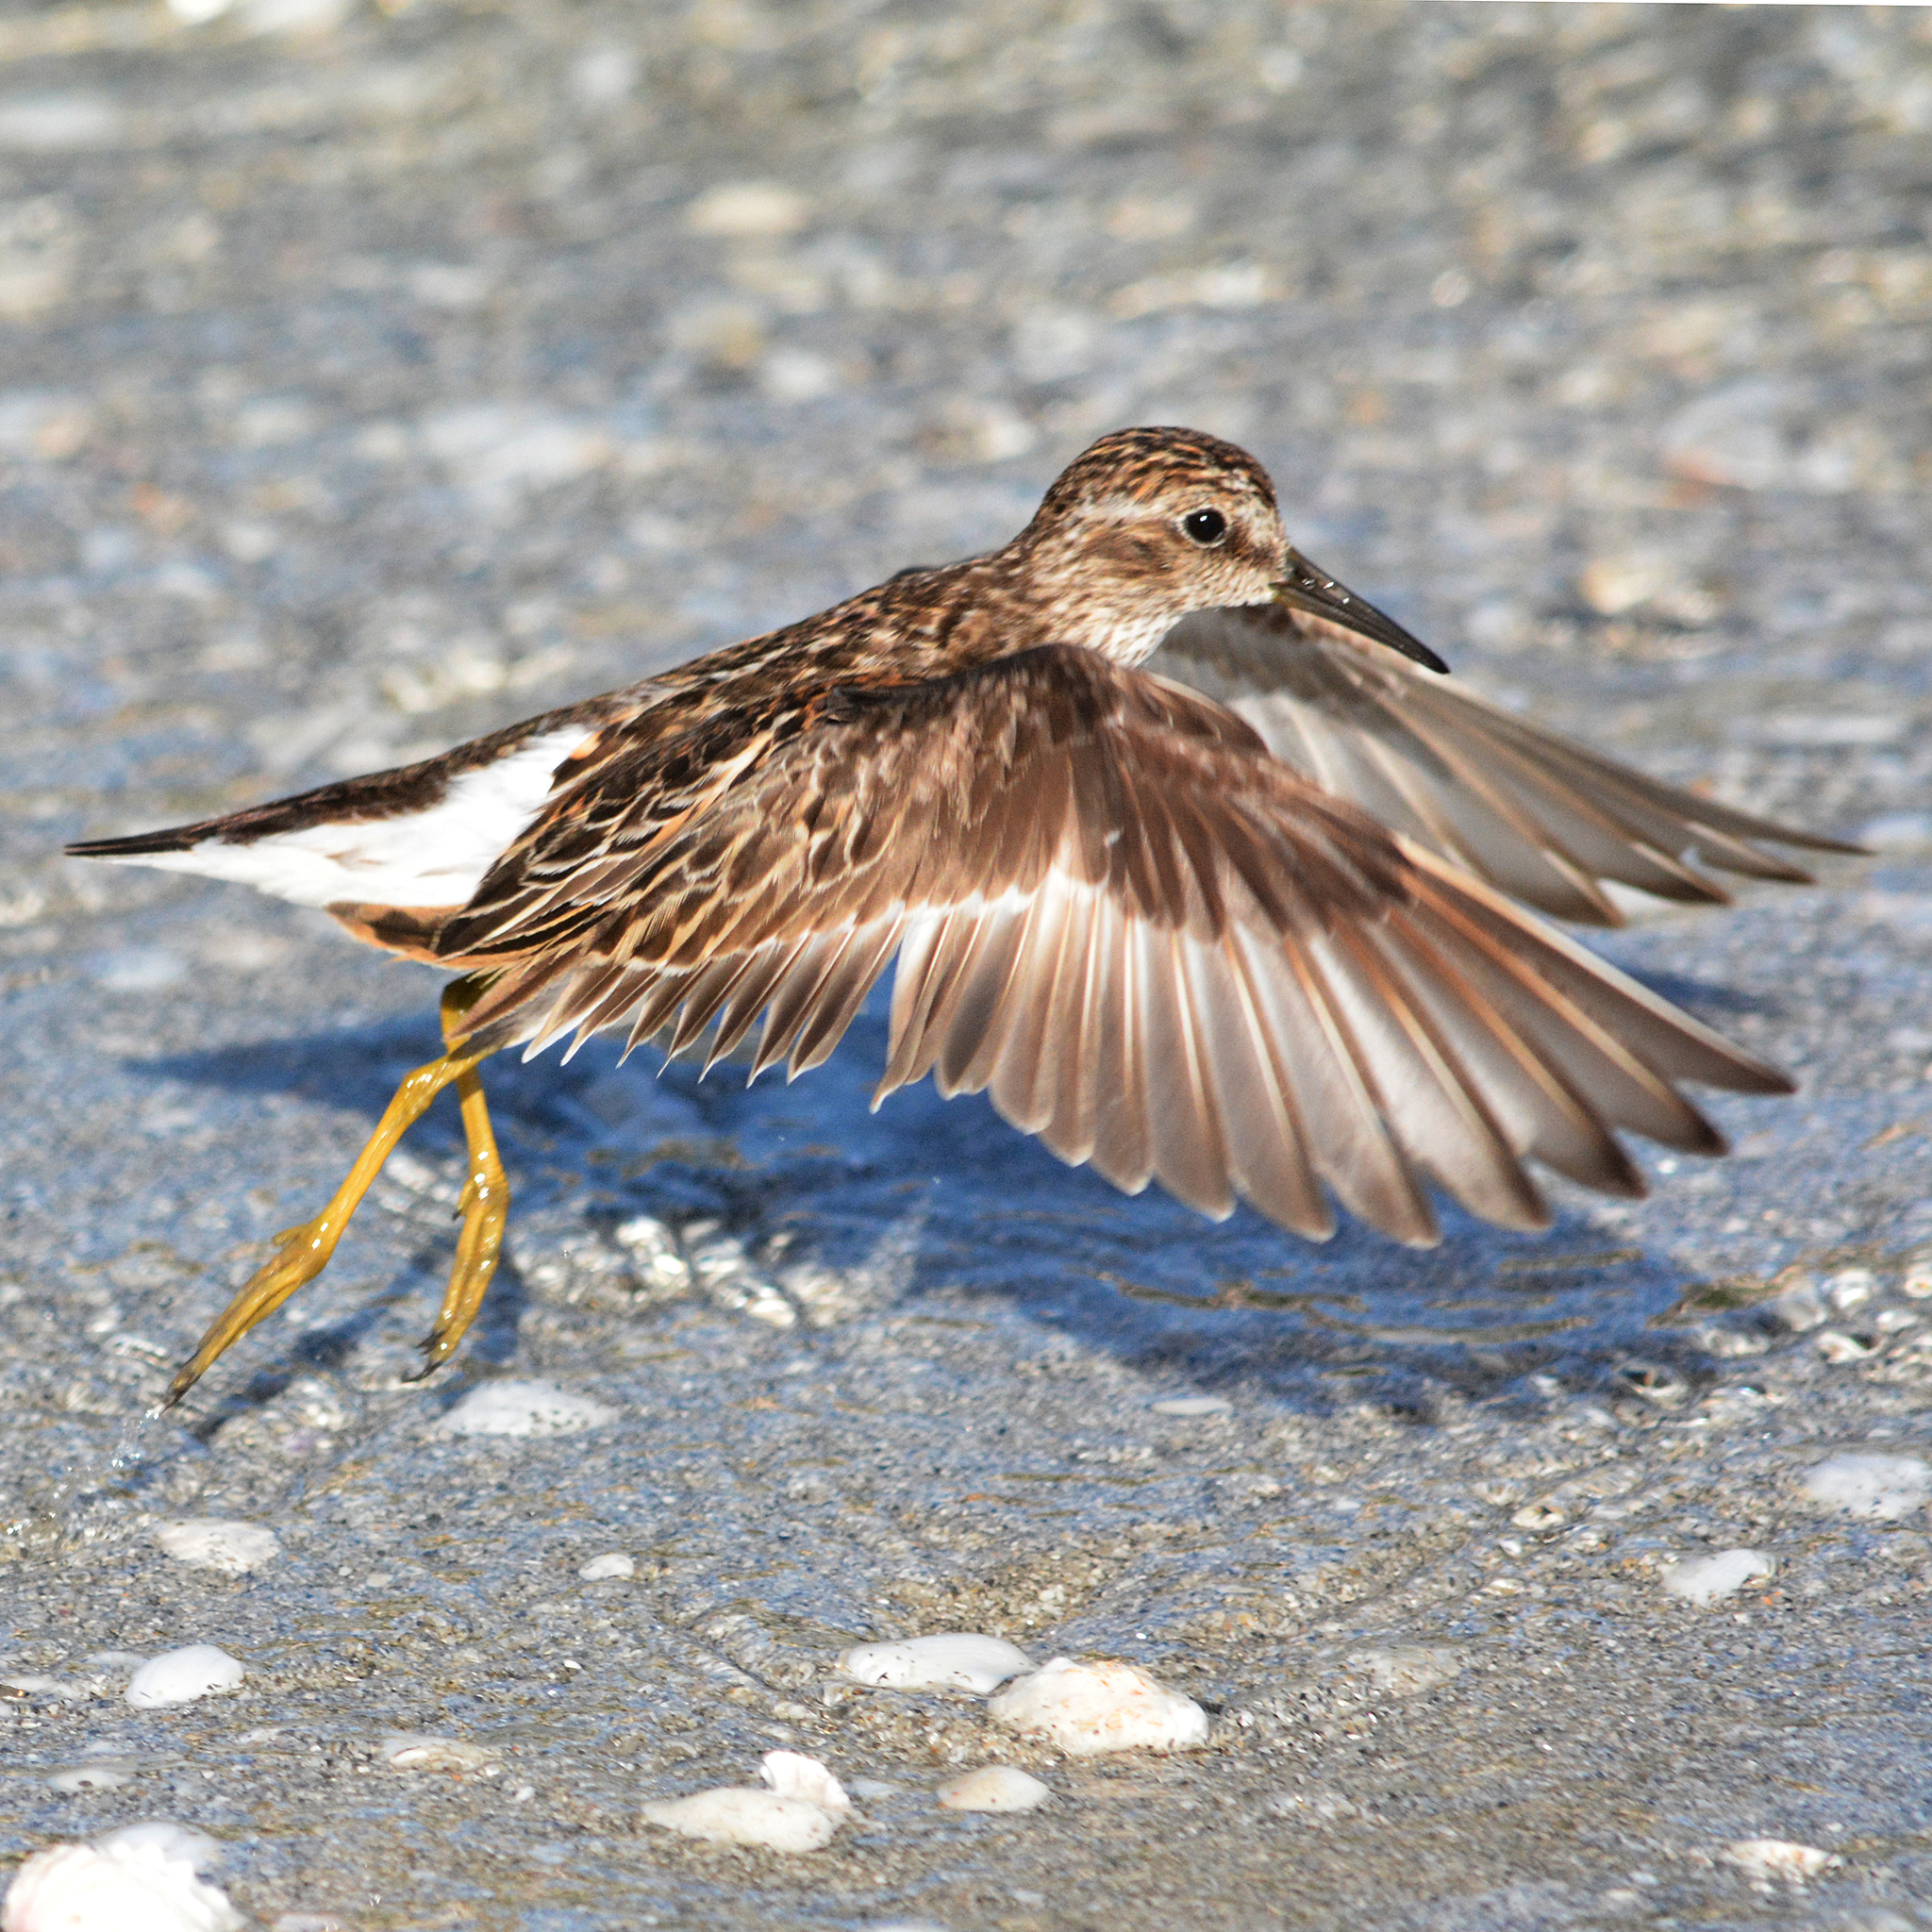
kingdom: Animalia
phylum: Chordata
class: Aves
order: Charadriiformes
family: Scolopacidae
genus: Calidris
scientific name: Calidris minutilla
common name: Least sandpiper
